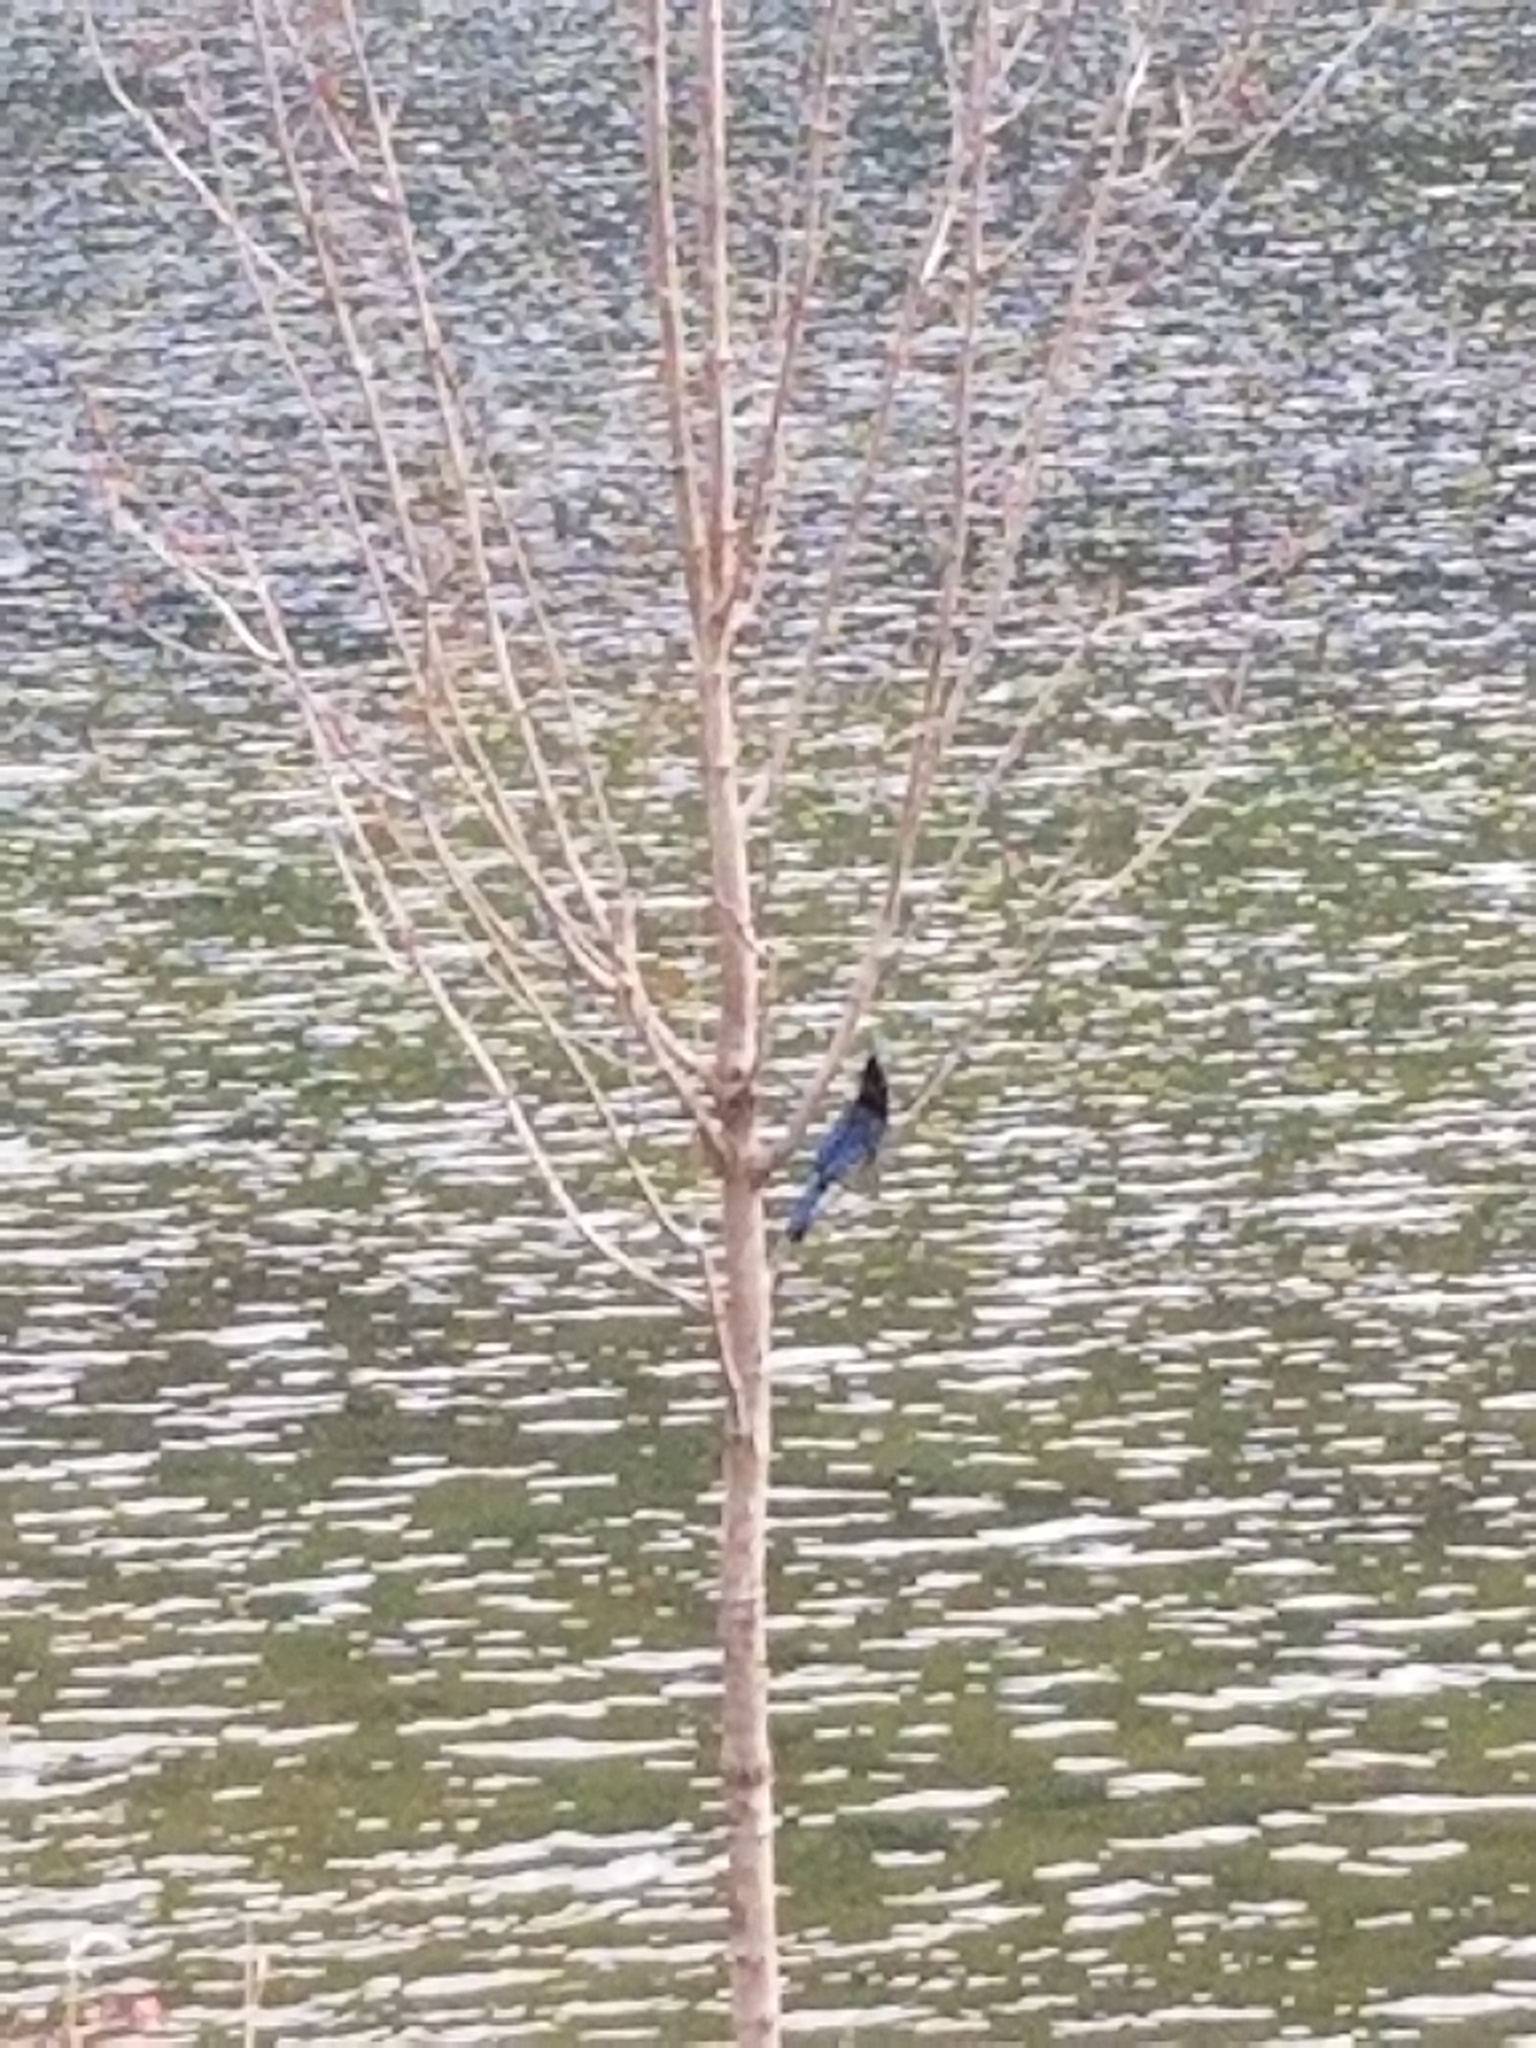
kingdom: Animalia
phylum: Chordata
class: Aves
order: Passeriformes
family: Corvidae
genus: Cyanocitta
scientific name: Cyanocitta stelleri
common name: Steller's jay
